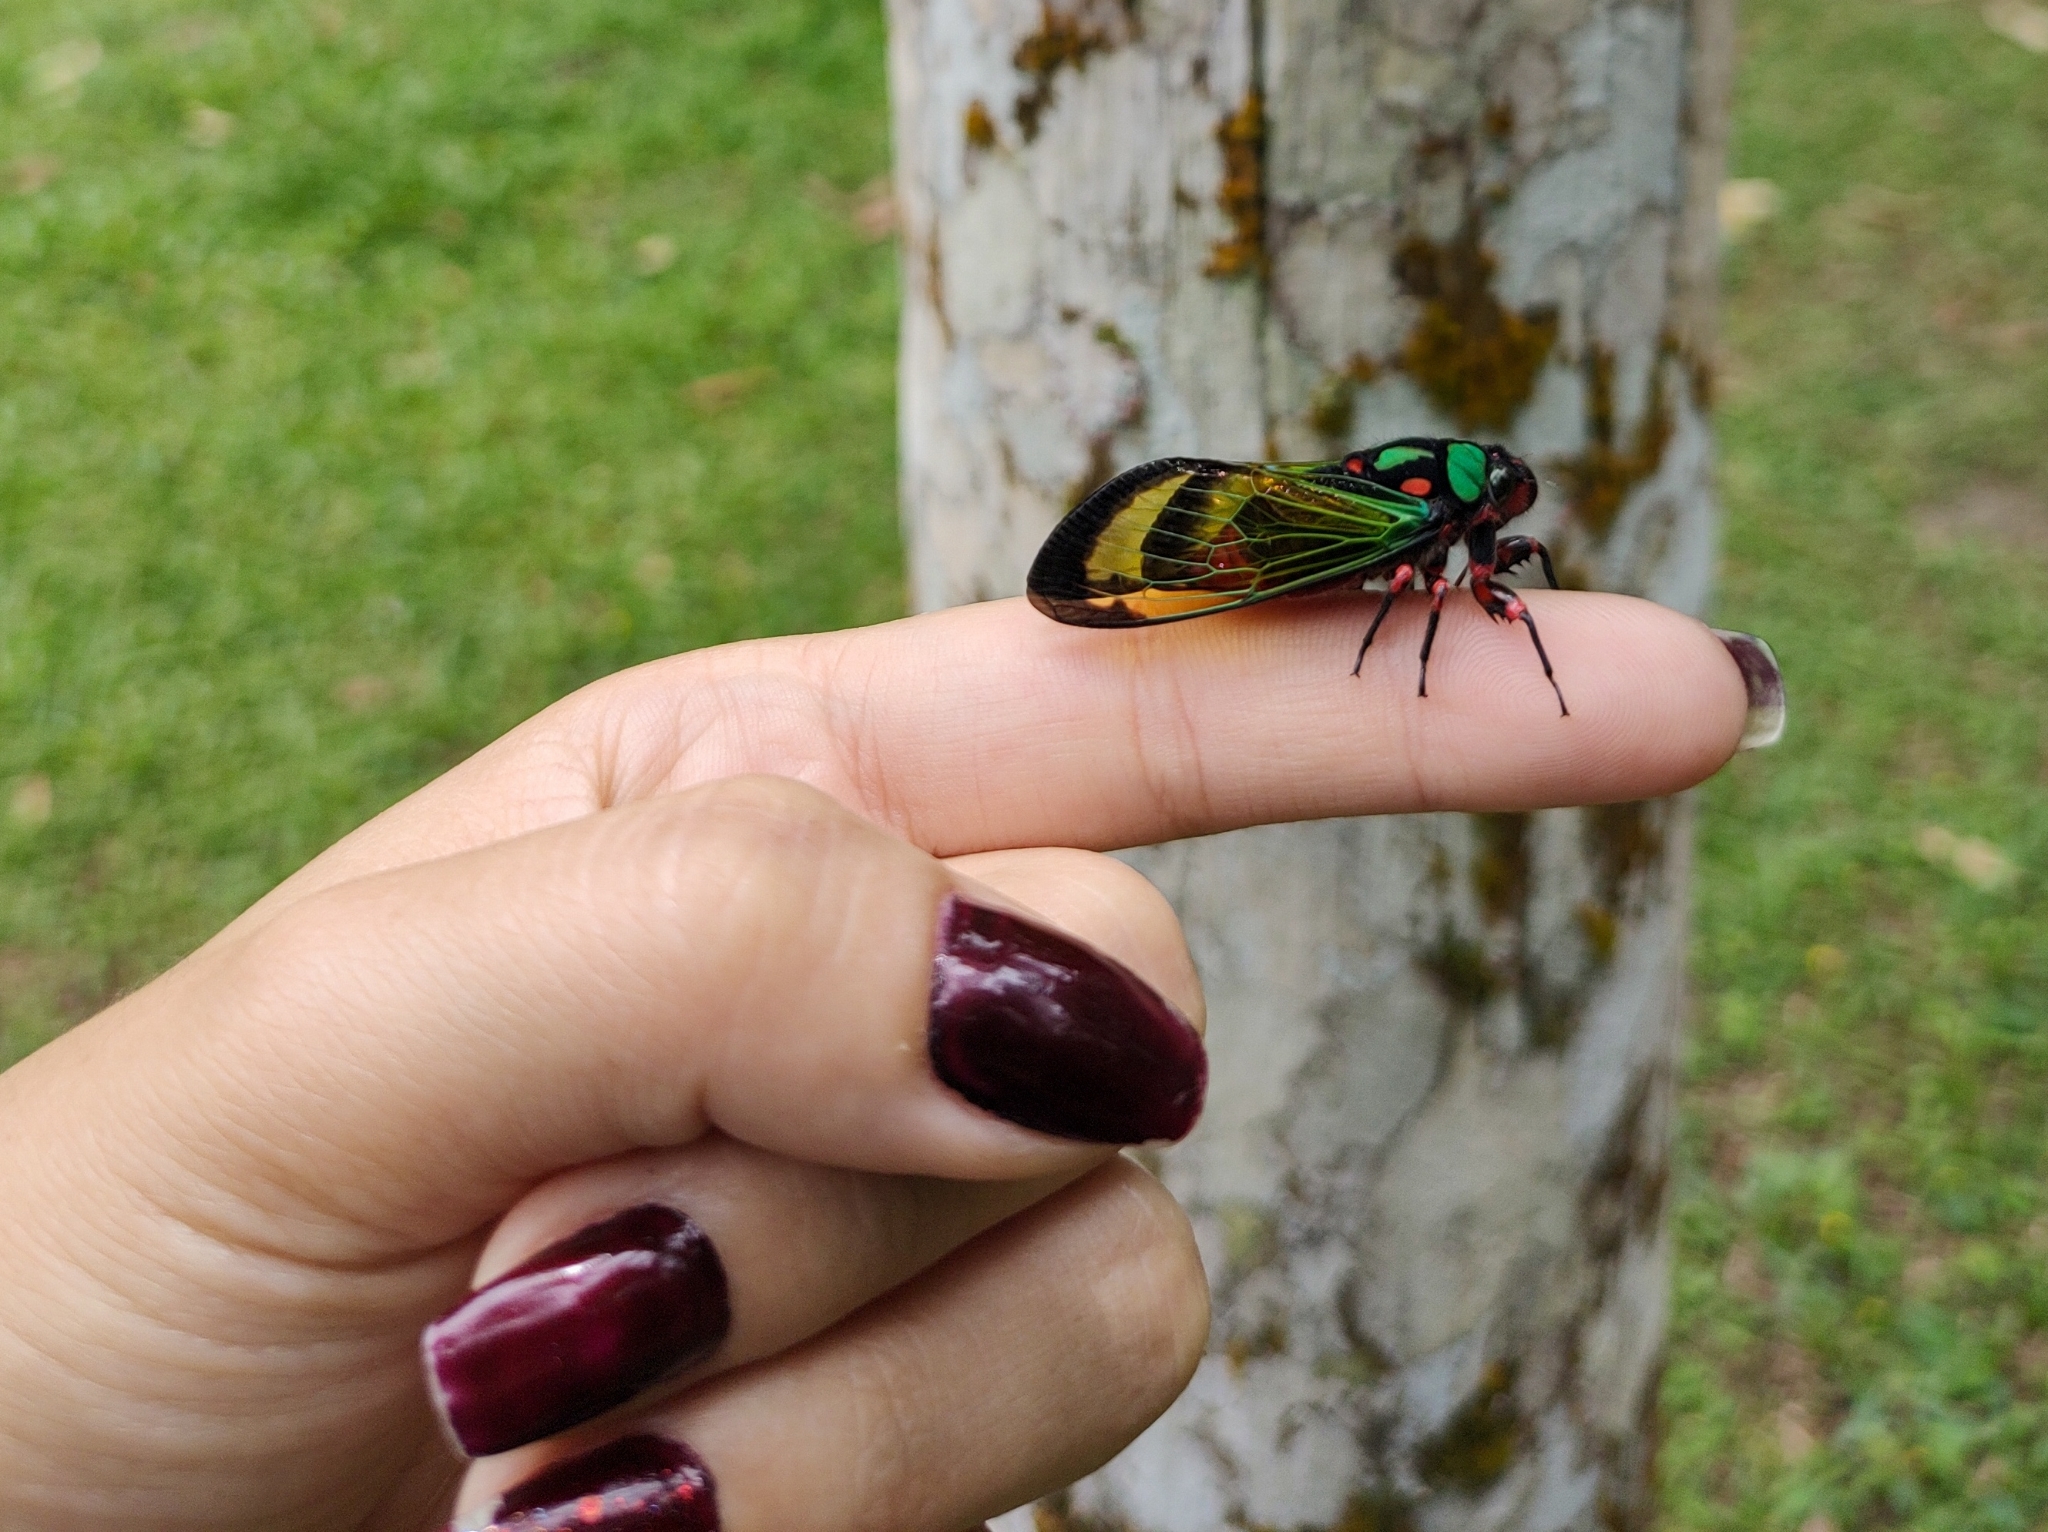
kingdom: Animalia
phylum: Arthropoda
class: Insecta
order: Hemiptera
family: Cicadidae
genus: Carineta
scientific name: Carineta diardi
